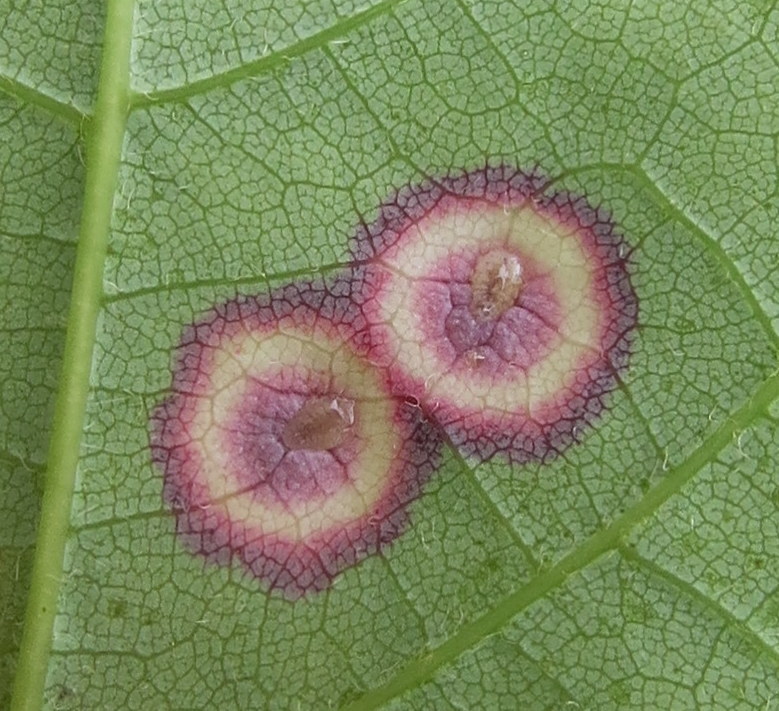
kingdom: Animalia
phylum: Arthropoda
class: Insecta
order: Diptera
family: Cecidomyiidae
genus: Acericecis
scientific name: Acericecis ocellaris
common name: Ocellate gall midge
